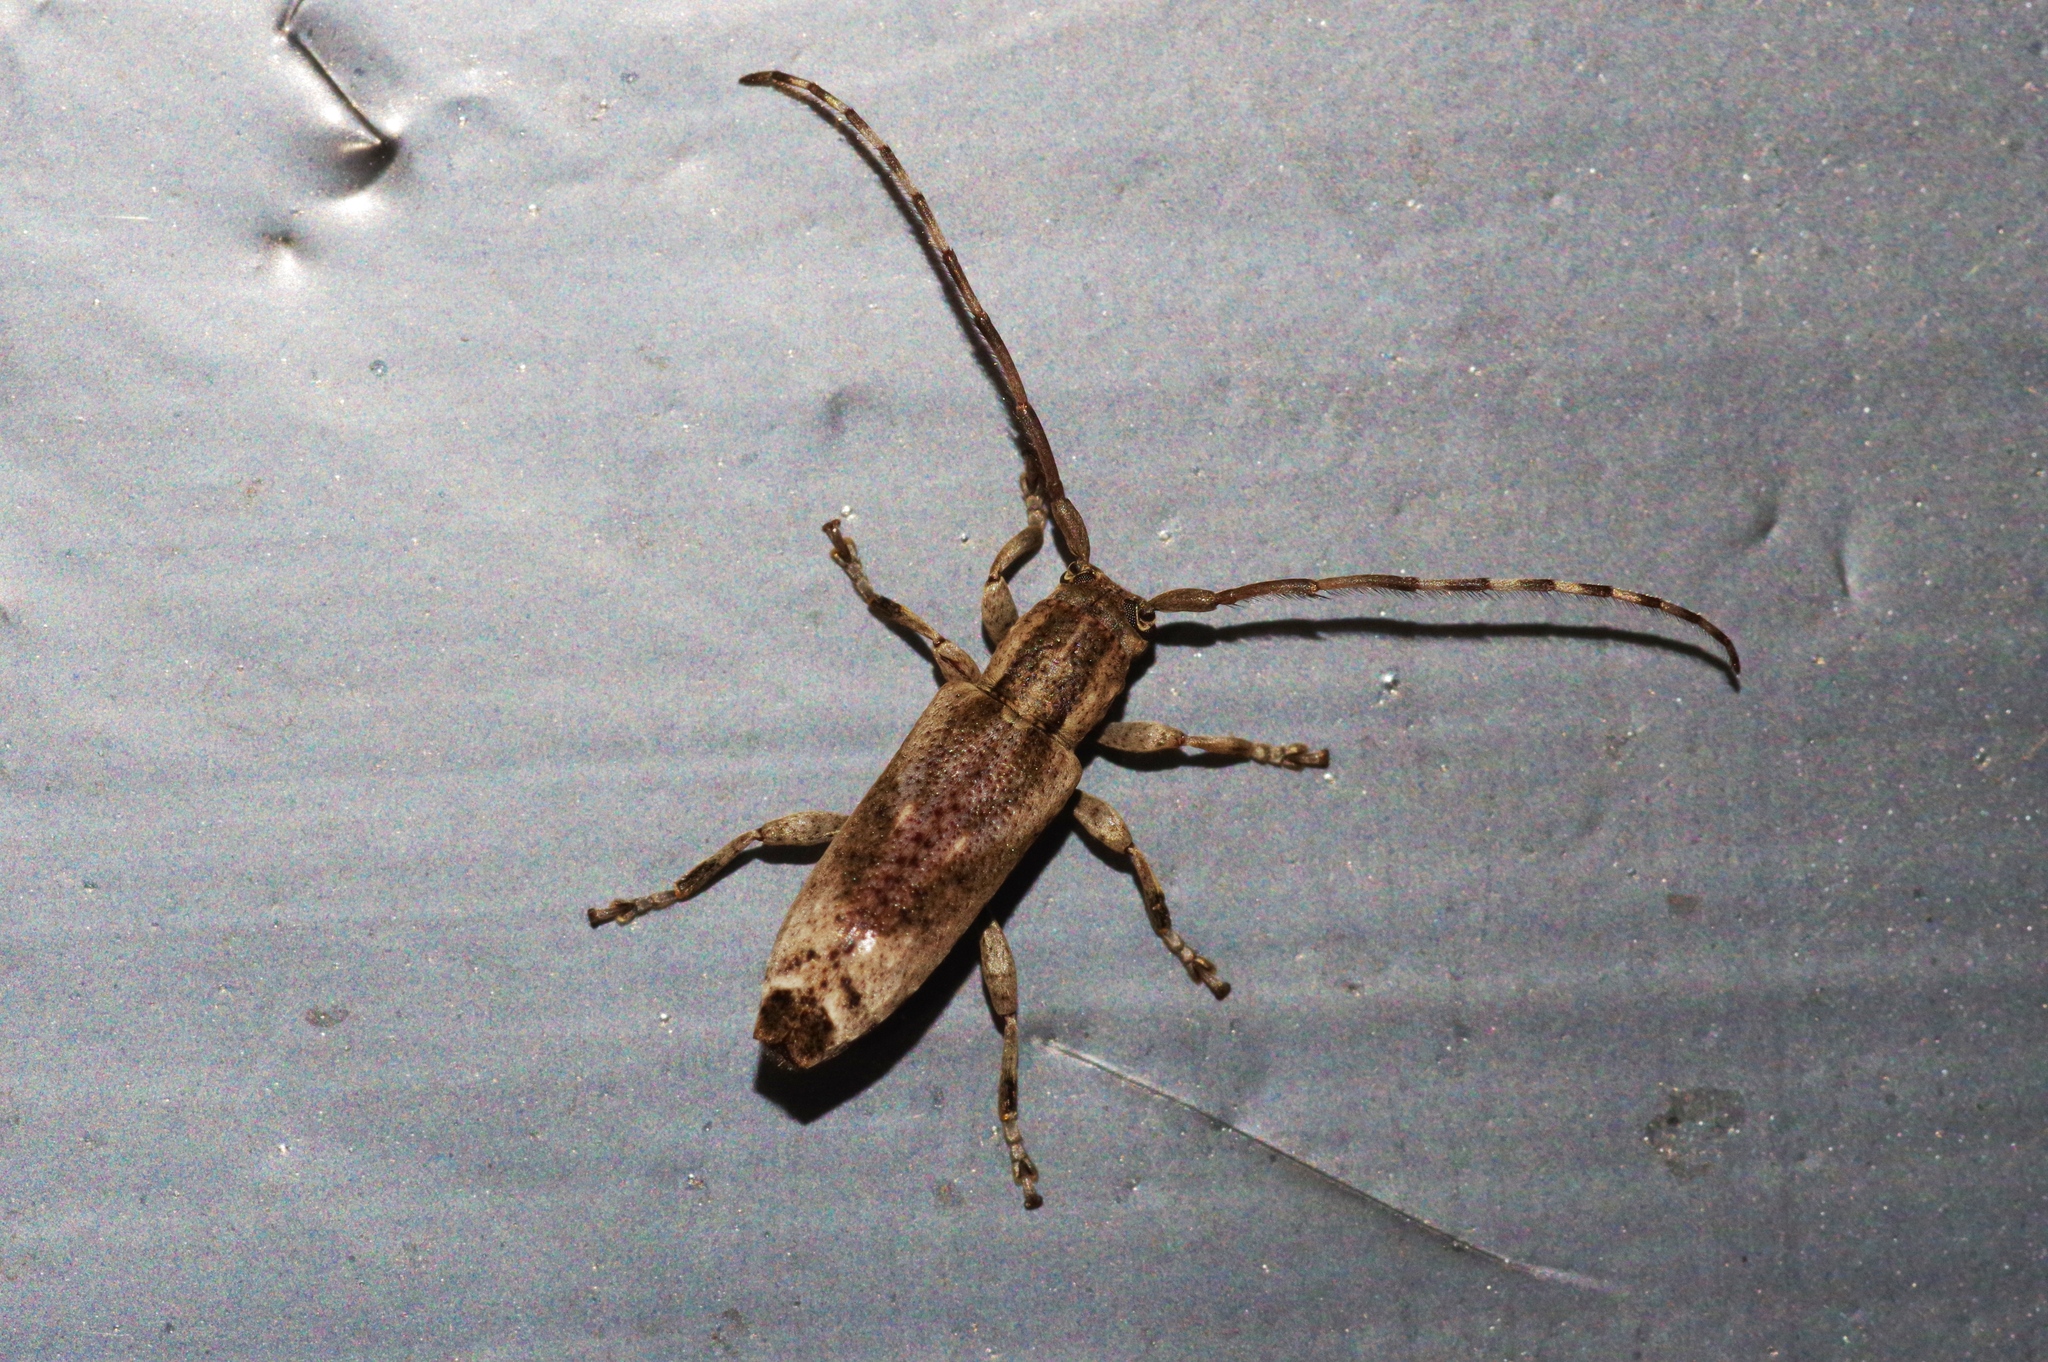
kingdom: Animalia
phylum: Arthropoda
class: Insecta
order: Coleoptera
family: Cerambycidae
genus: Mimectatina
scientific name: Mimectatina meridiana
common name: Long-horned beetle
